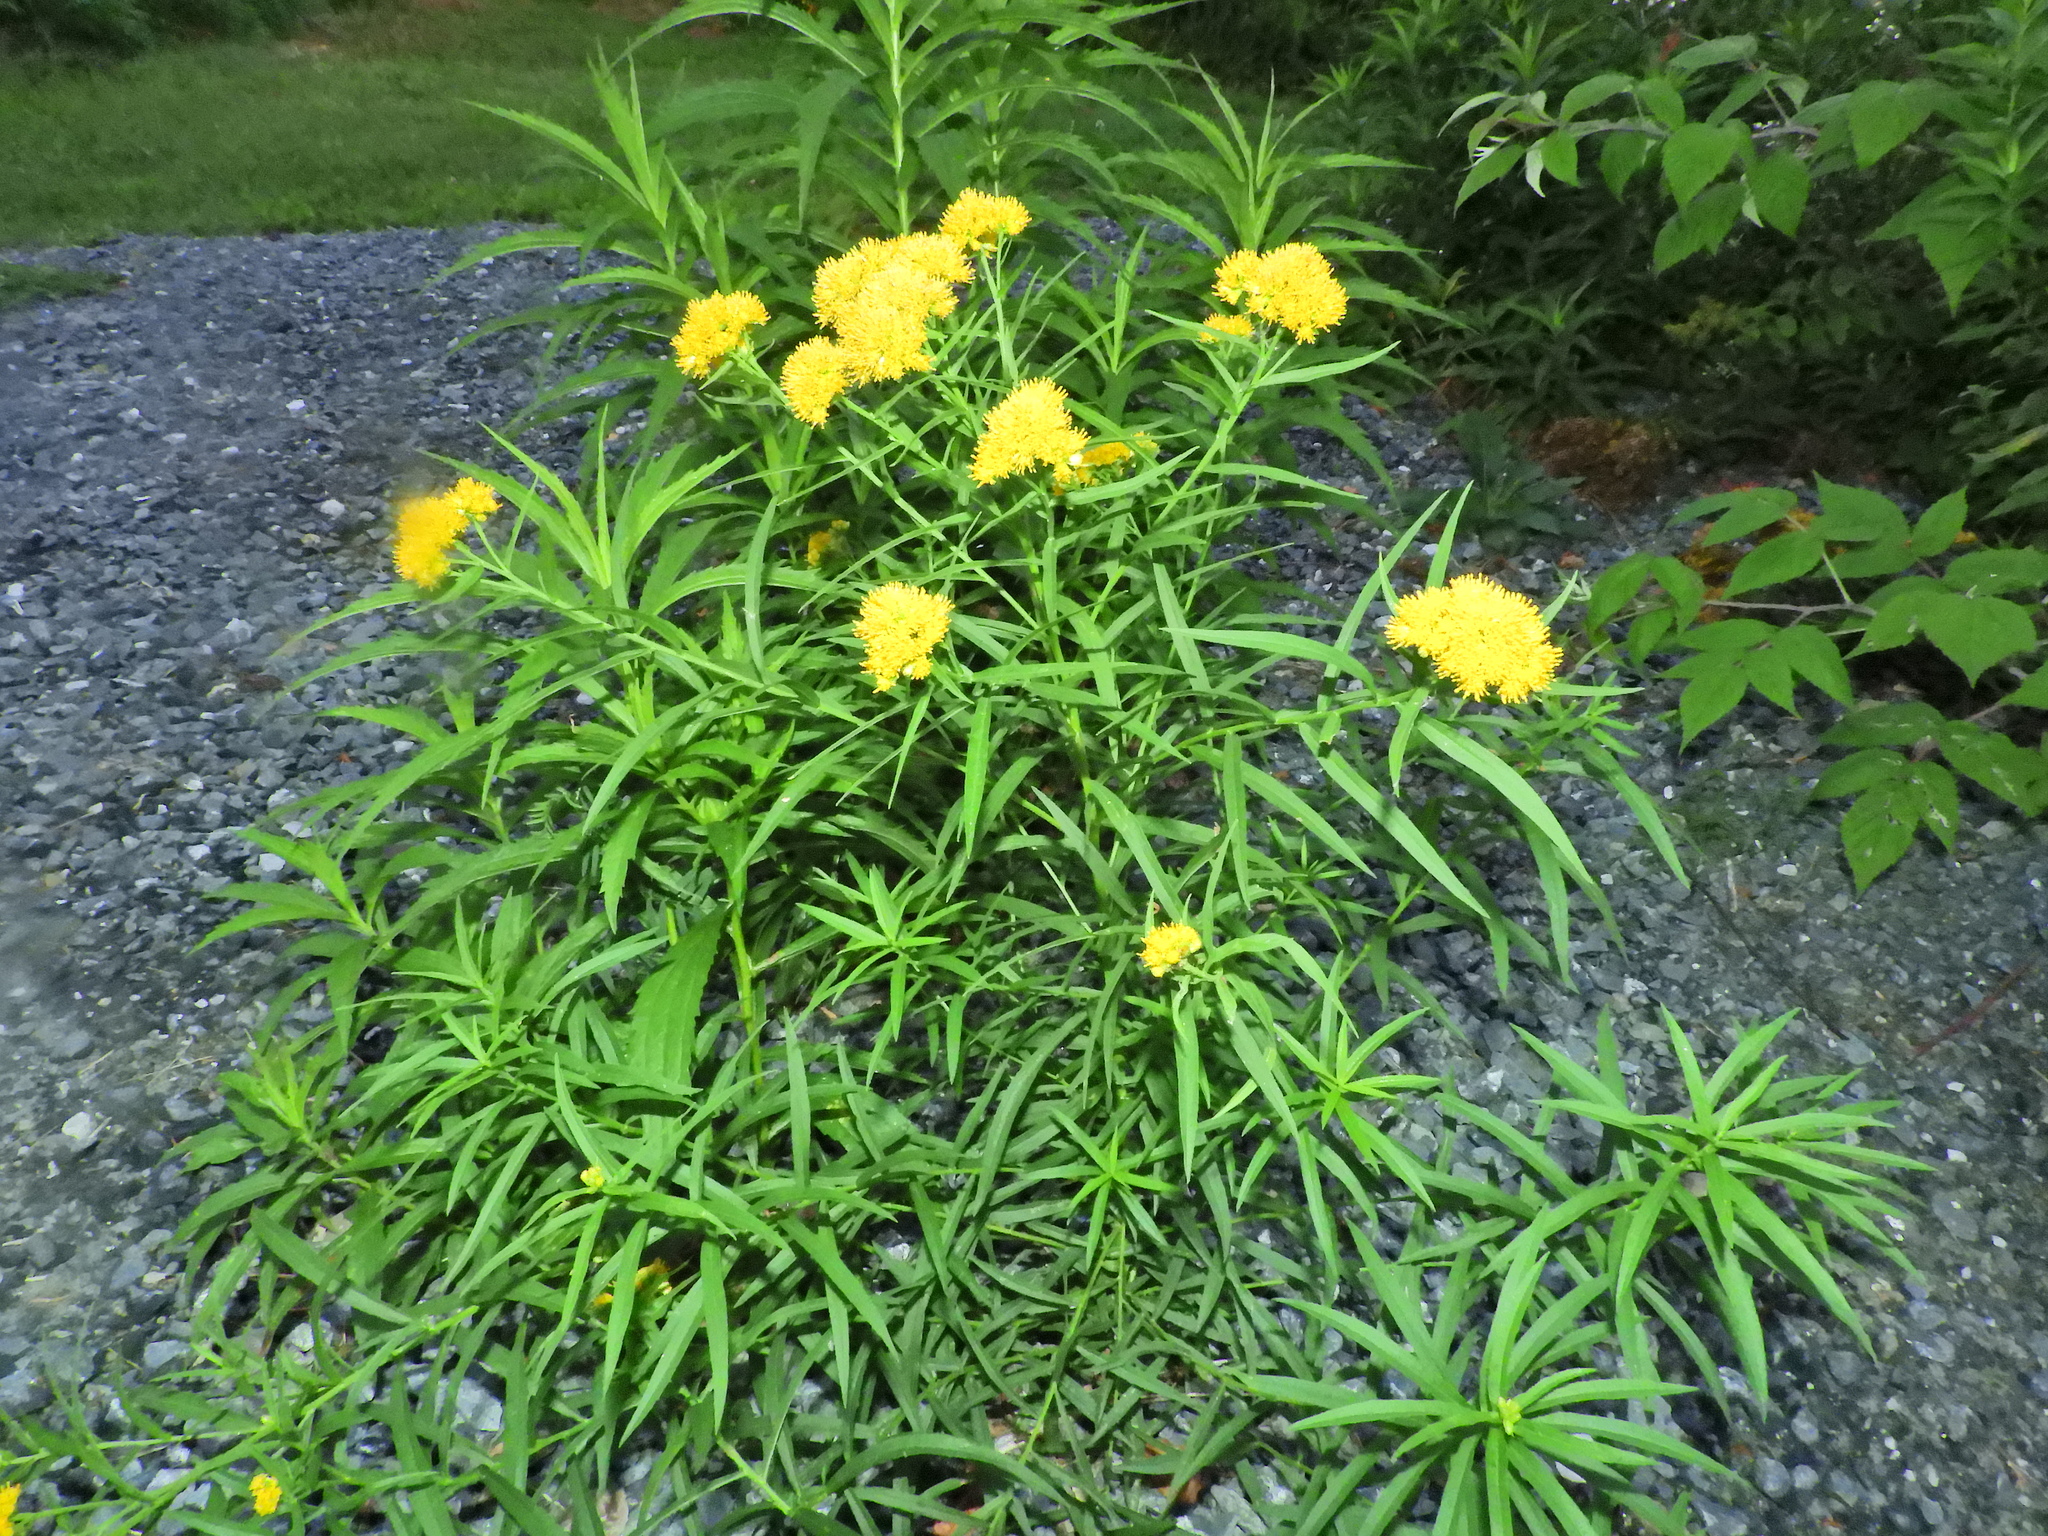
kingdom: Plantae
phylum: Tracheophyta
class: Magnoliopsida
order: Asterales
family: Asteraceae
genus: Euthamia
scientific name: Euthamia graminifolia
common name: Common goldentop
